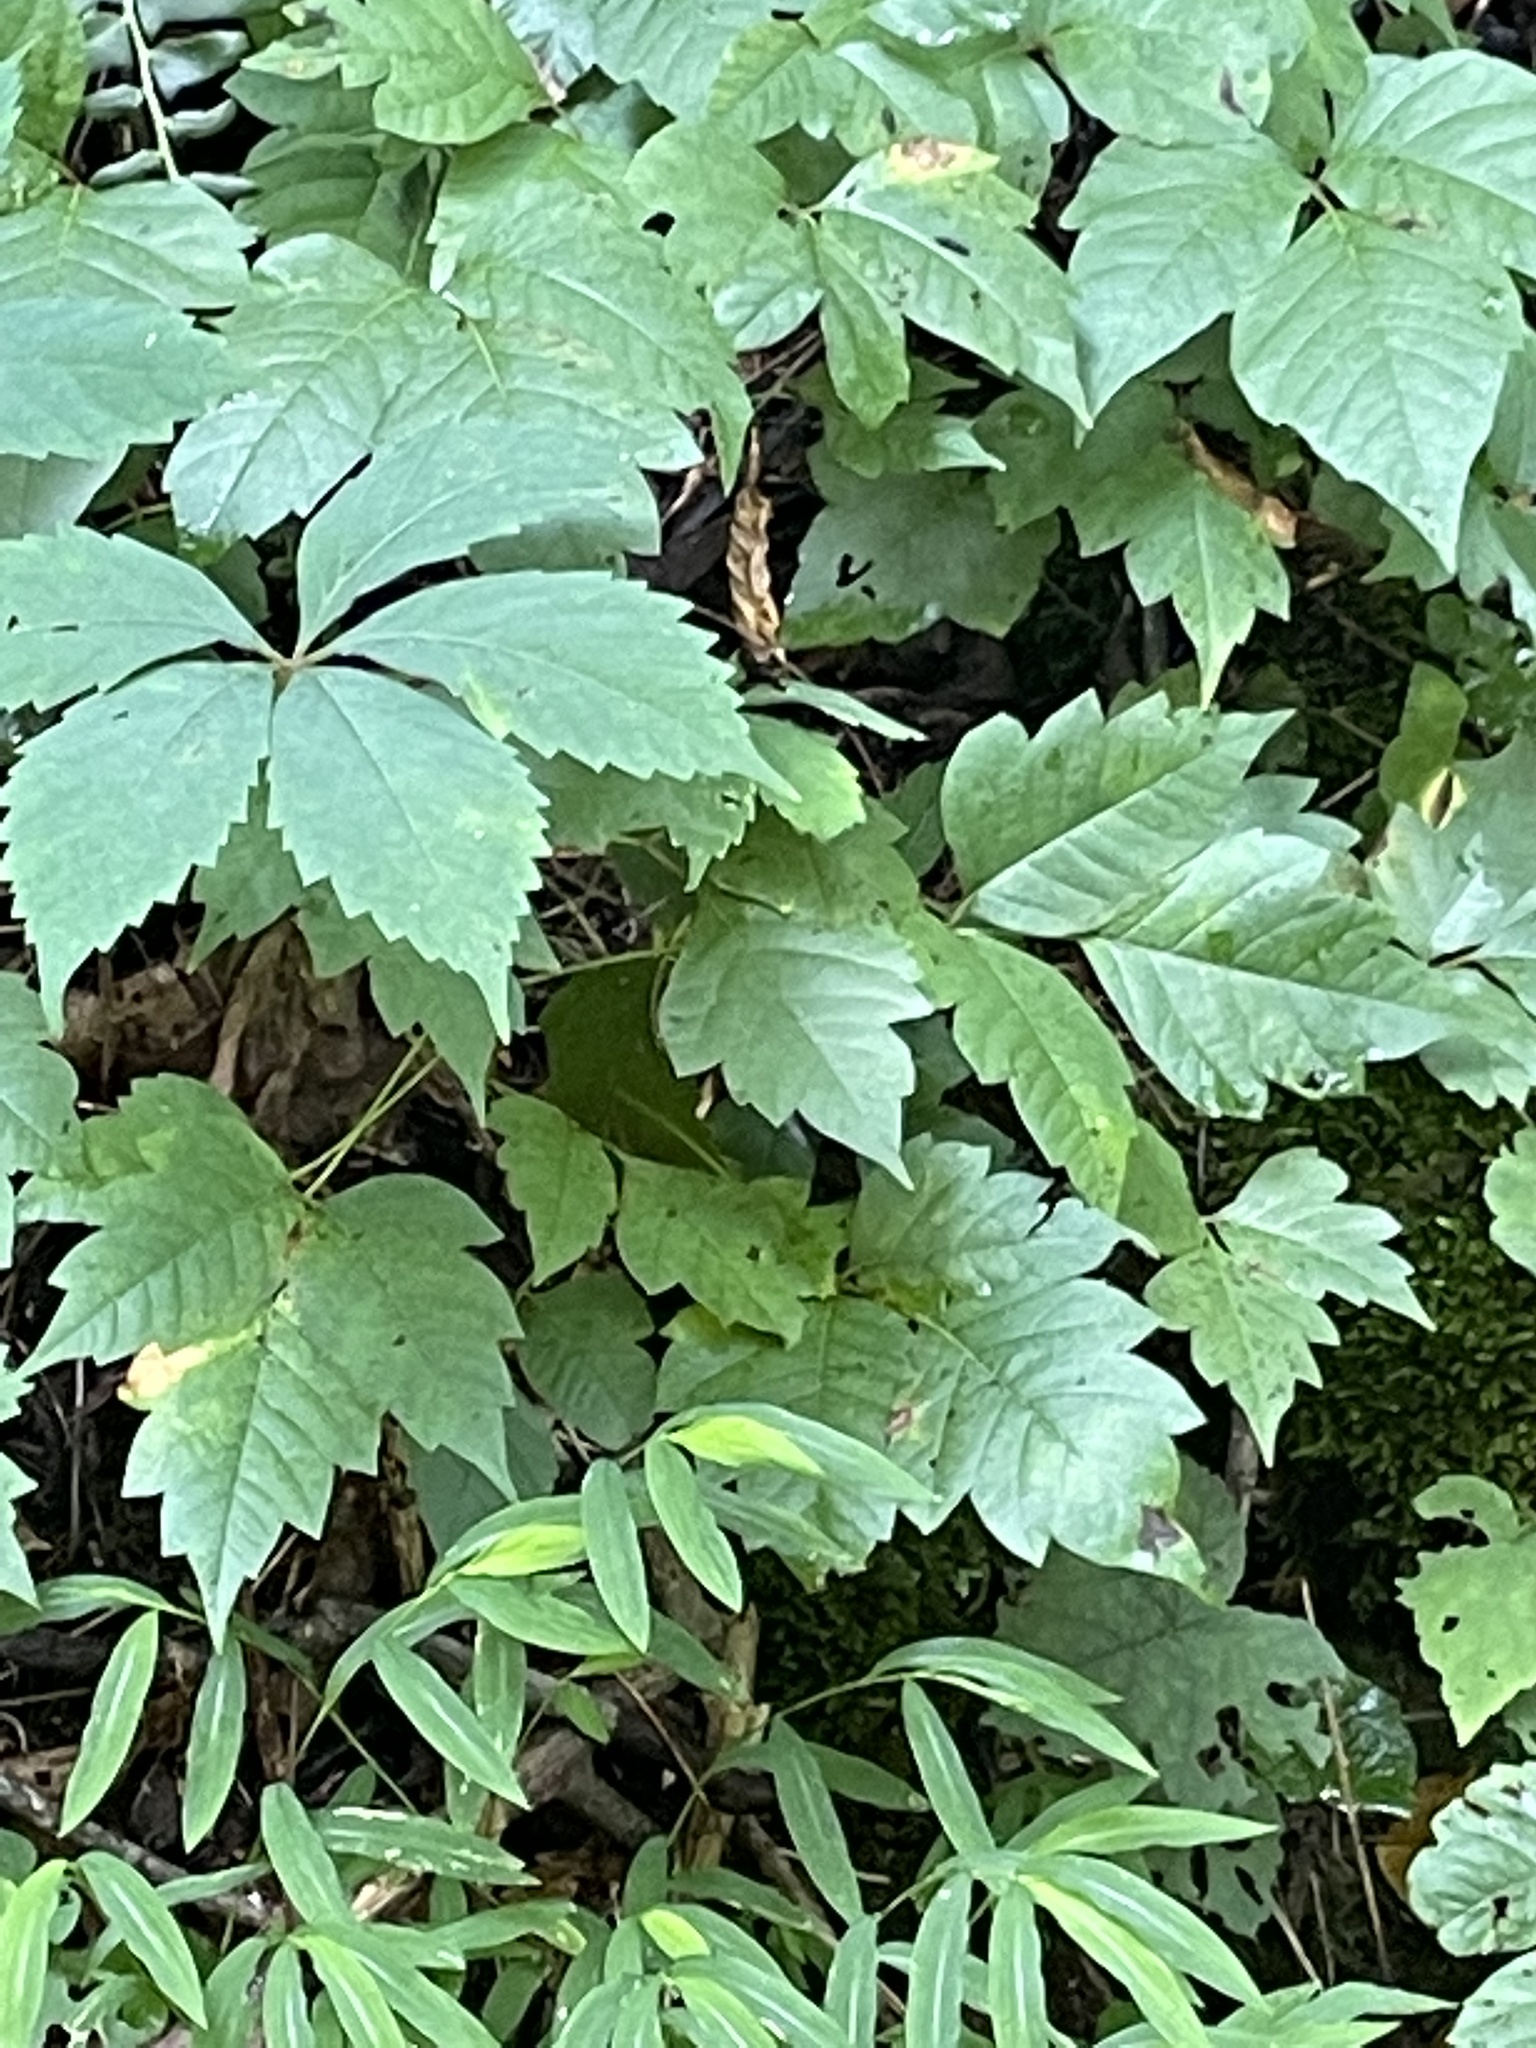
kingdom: Plantae
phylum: Tracheophyta
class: Magnoliopsida
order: Sapindales
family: Anacardiaceae
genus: Toxicodendron
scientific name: Toxicodendron radicans
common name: Poison ivy
